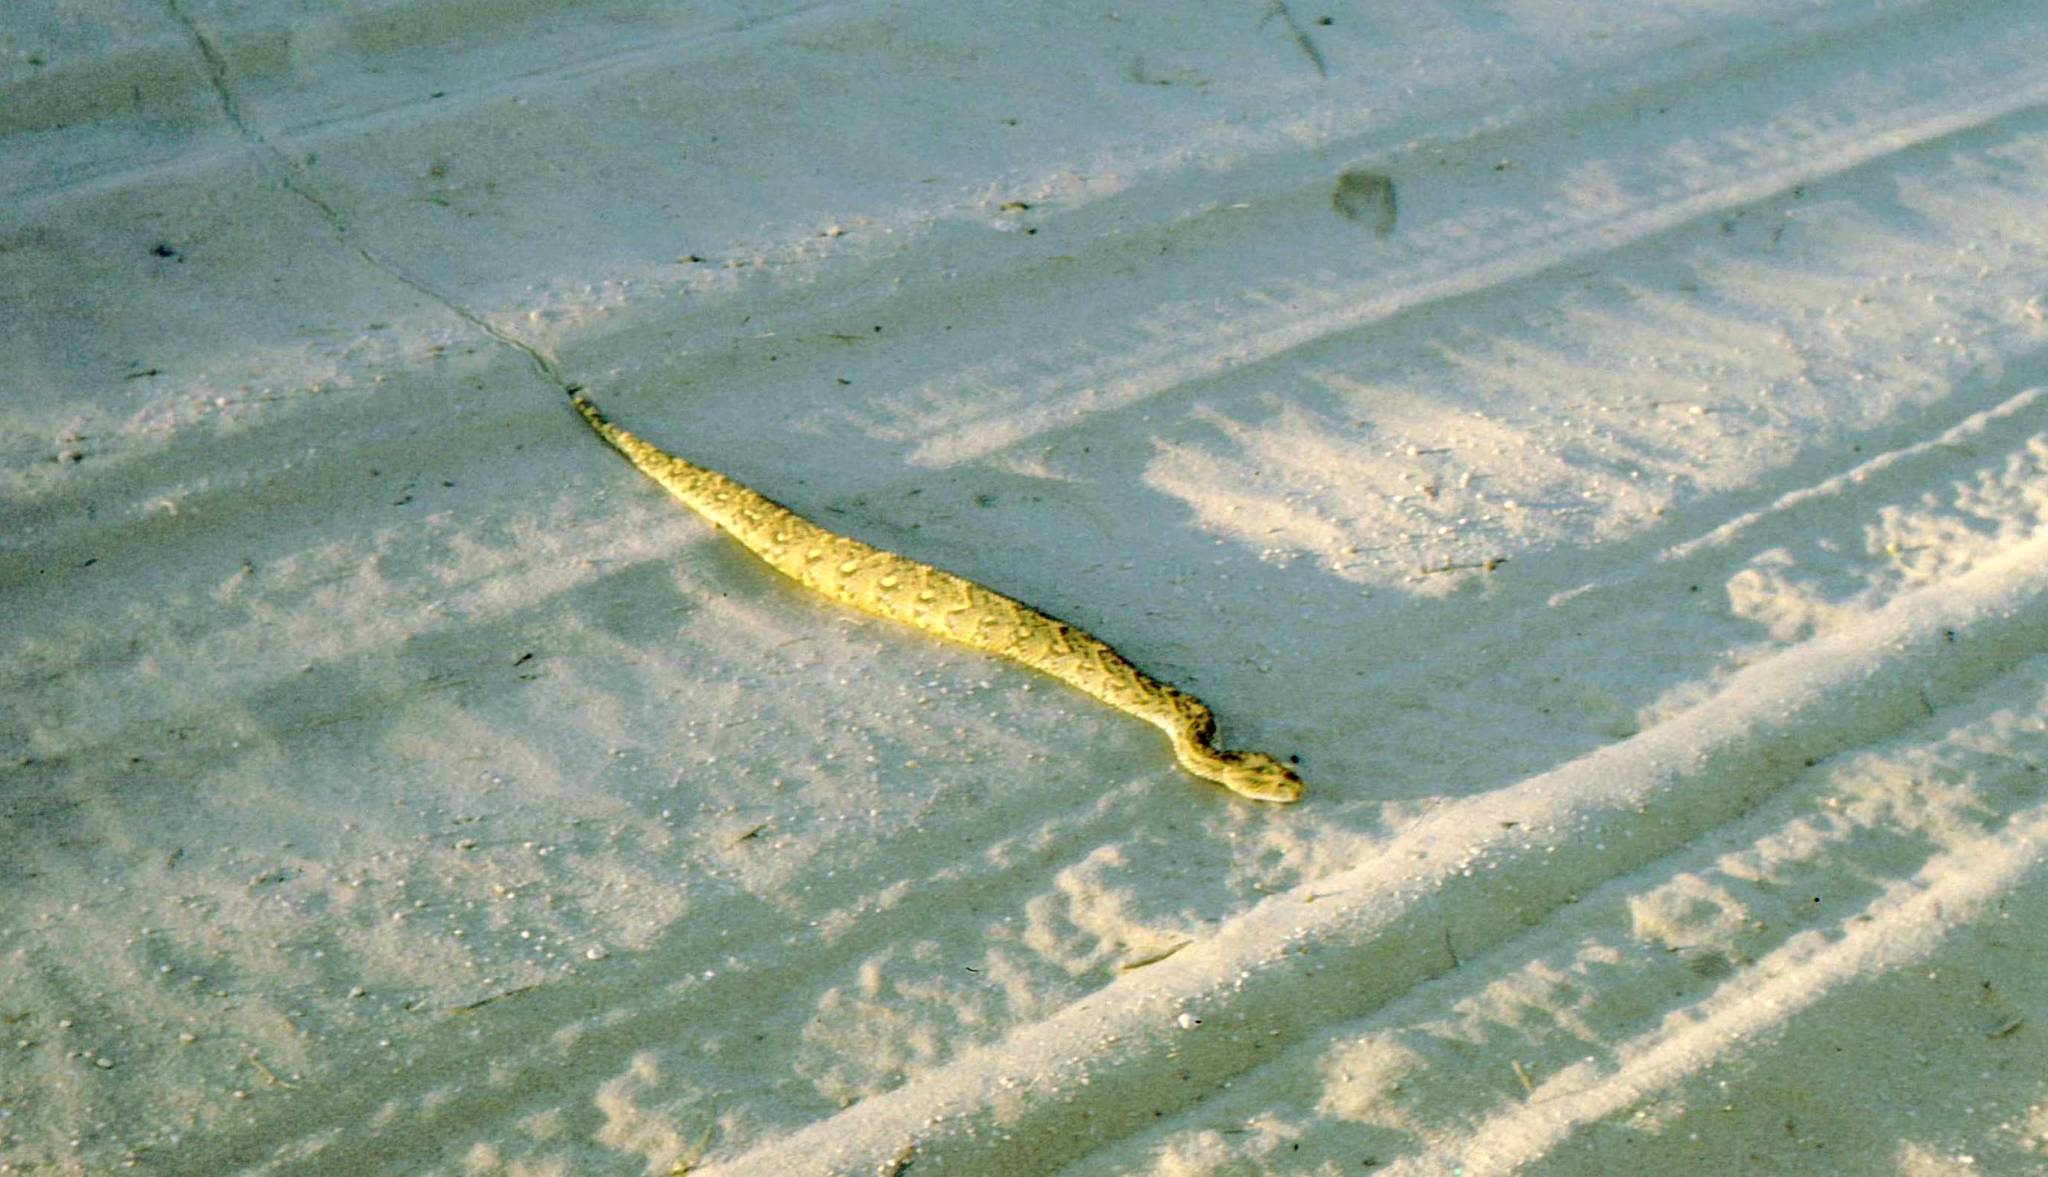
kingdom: Animalia
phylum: Chordata
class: Squamata
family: Viperidae
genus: Bitis
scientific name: Bitis arietans
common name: Puff adder
